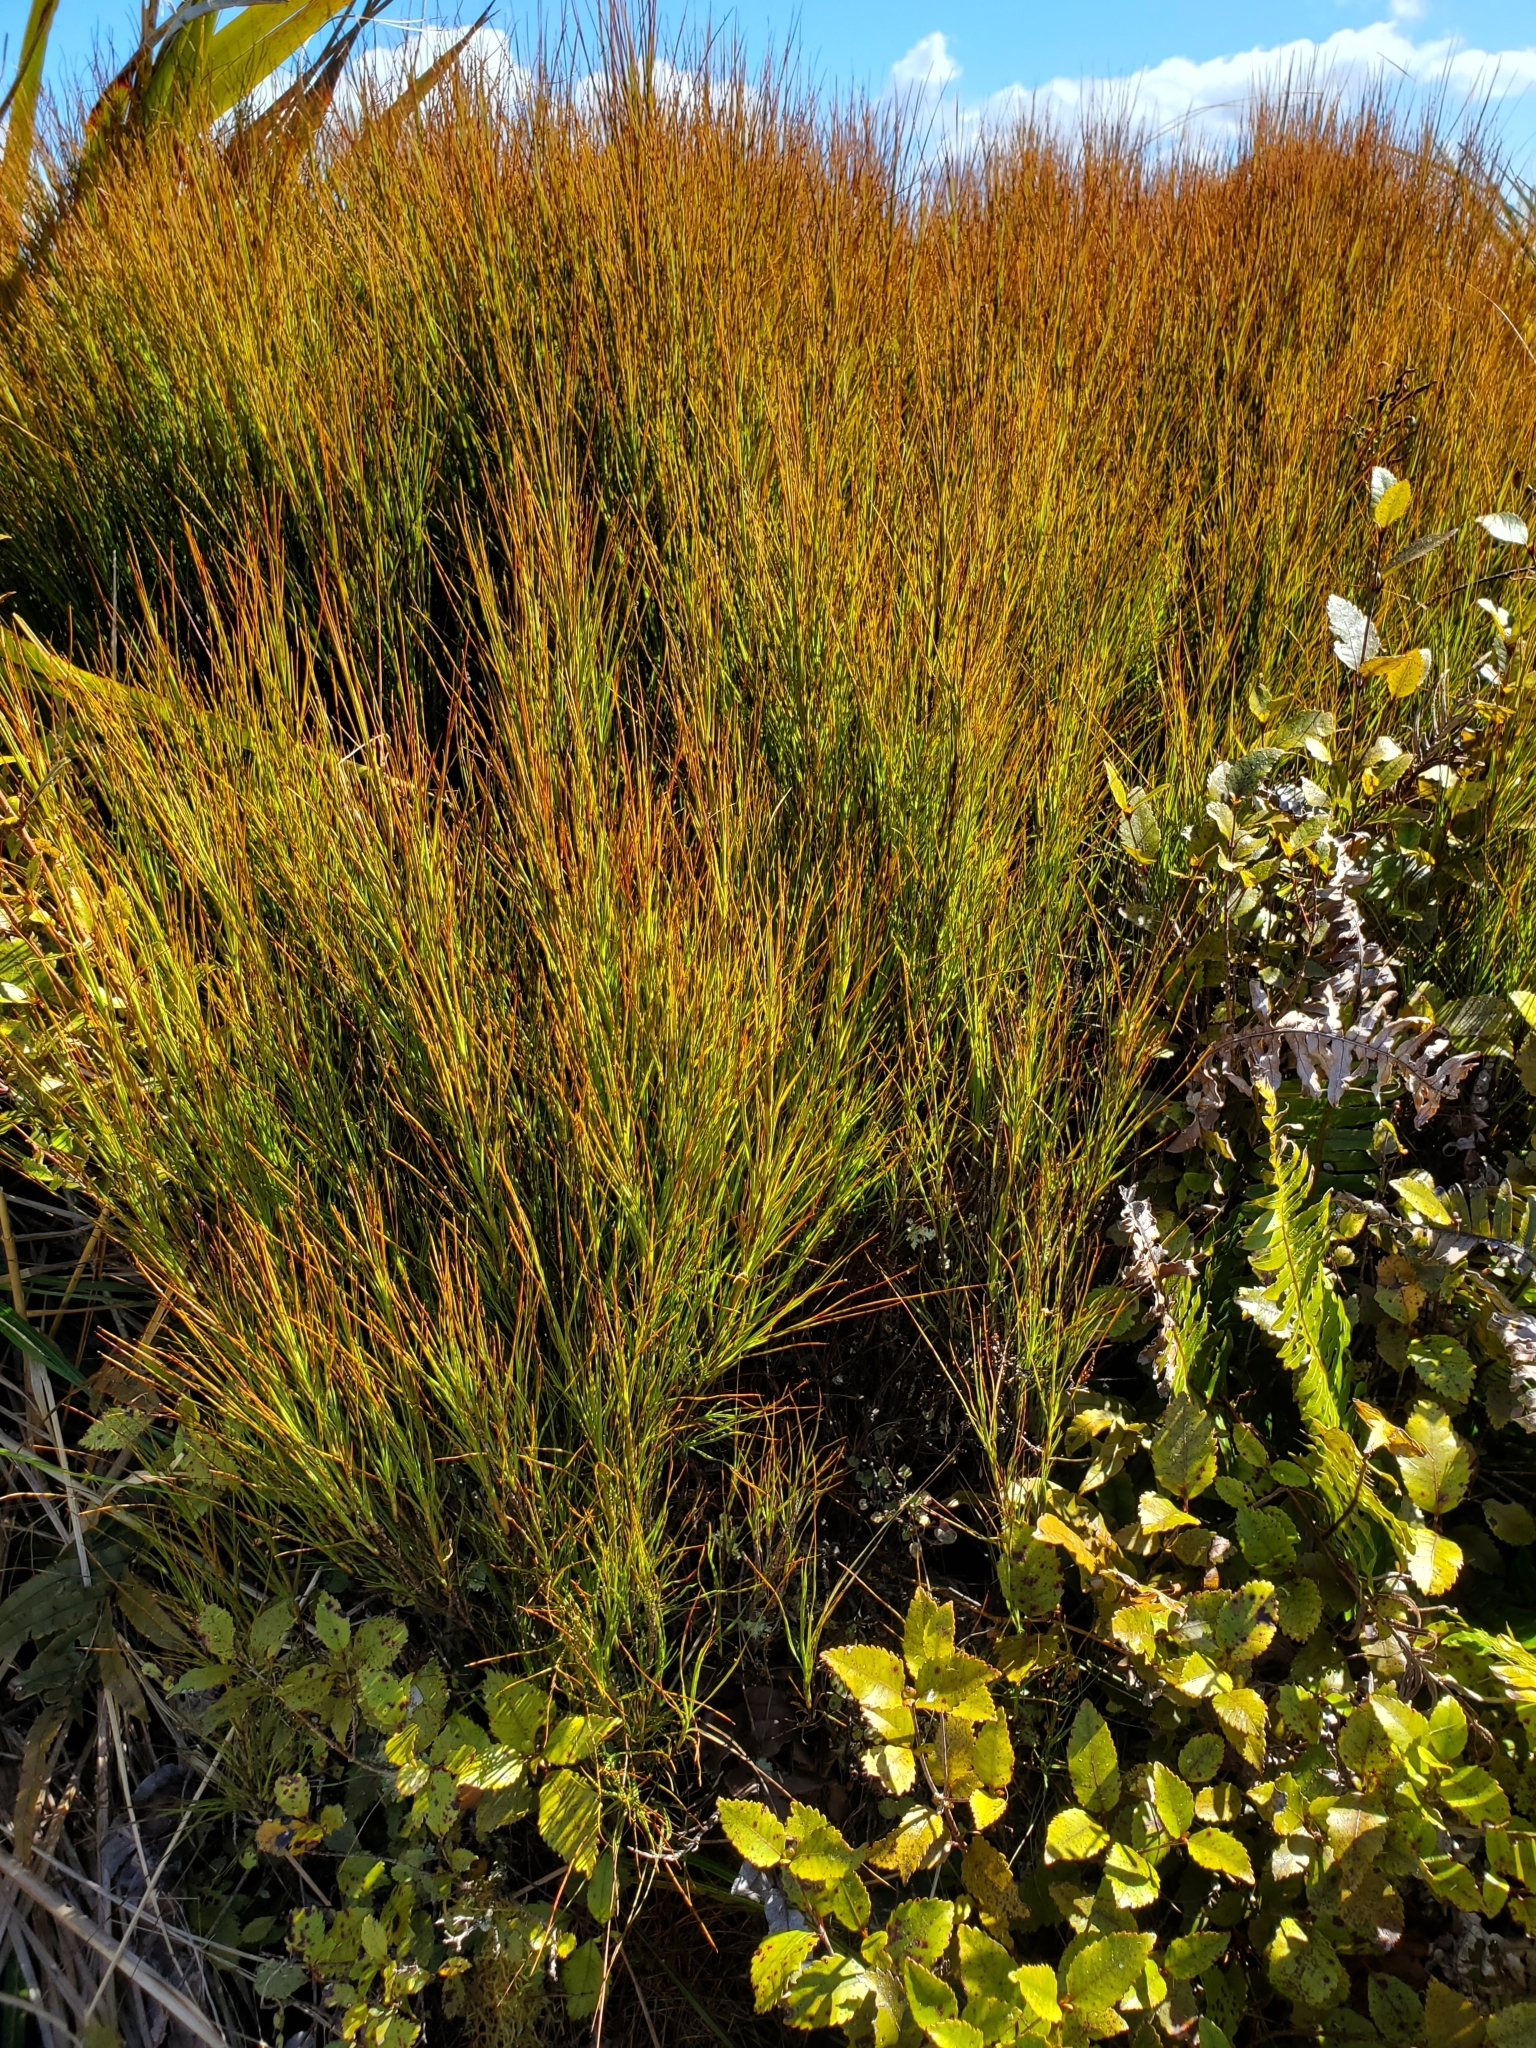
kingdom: Plantae
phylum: Tracheophyta
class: Magnoliopsida
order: Ericales
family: Ericaceae
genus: Dracophyllum
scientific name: Dracophyllum filifolium
